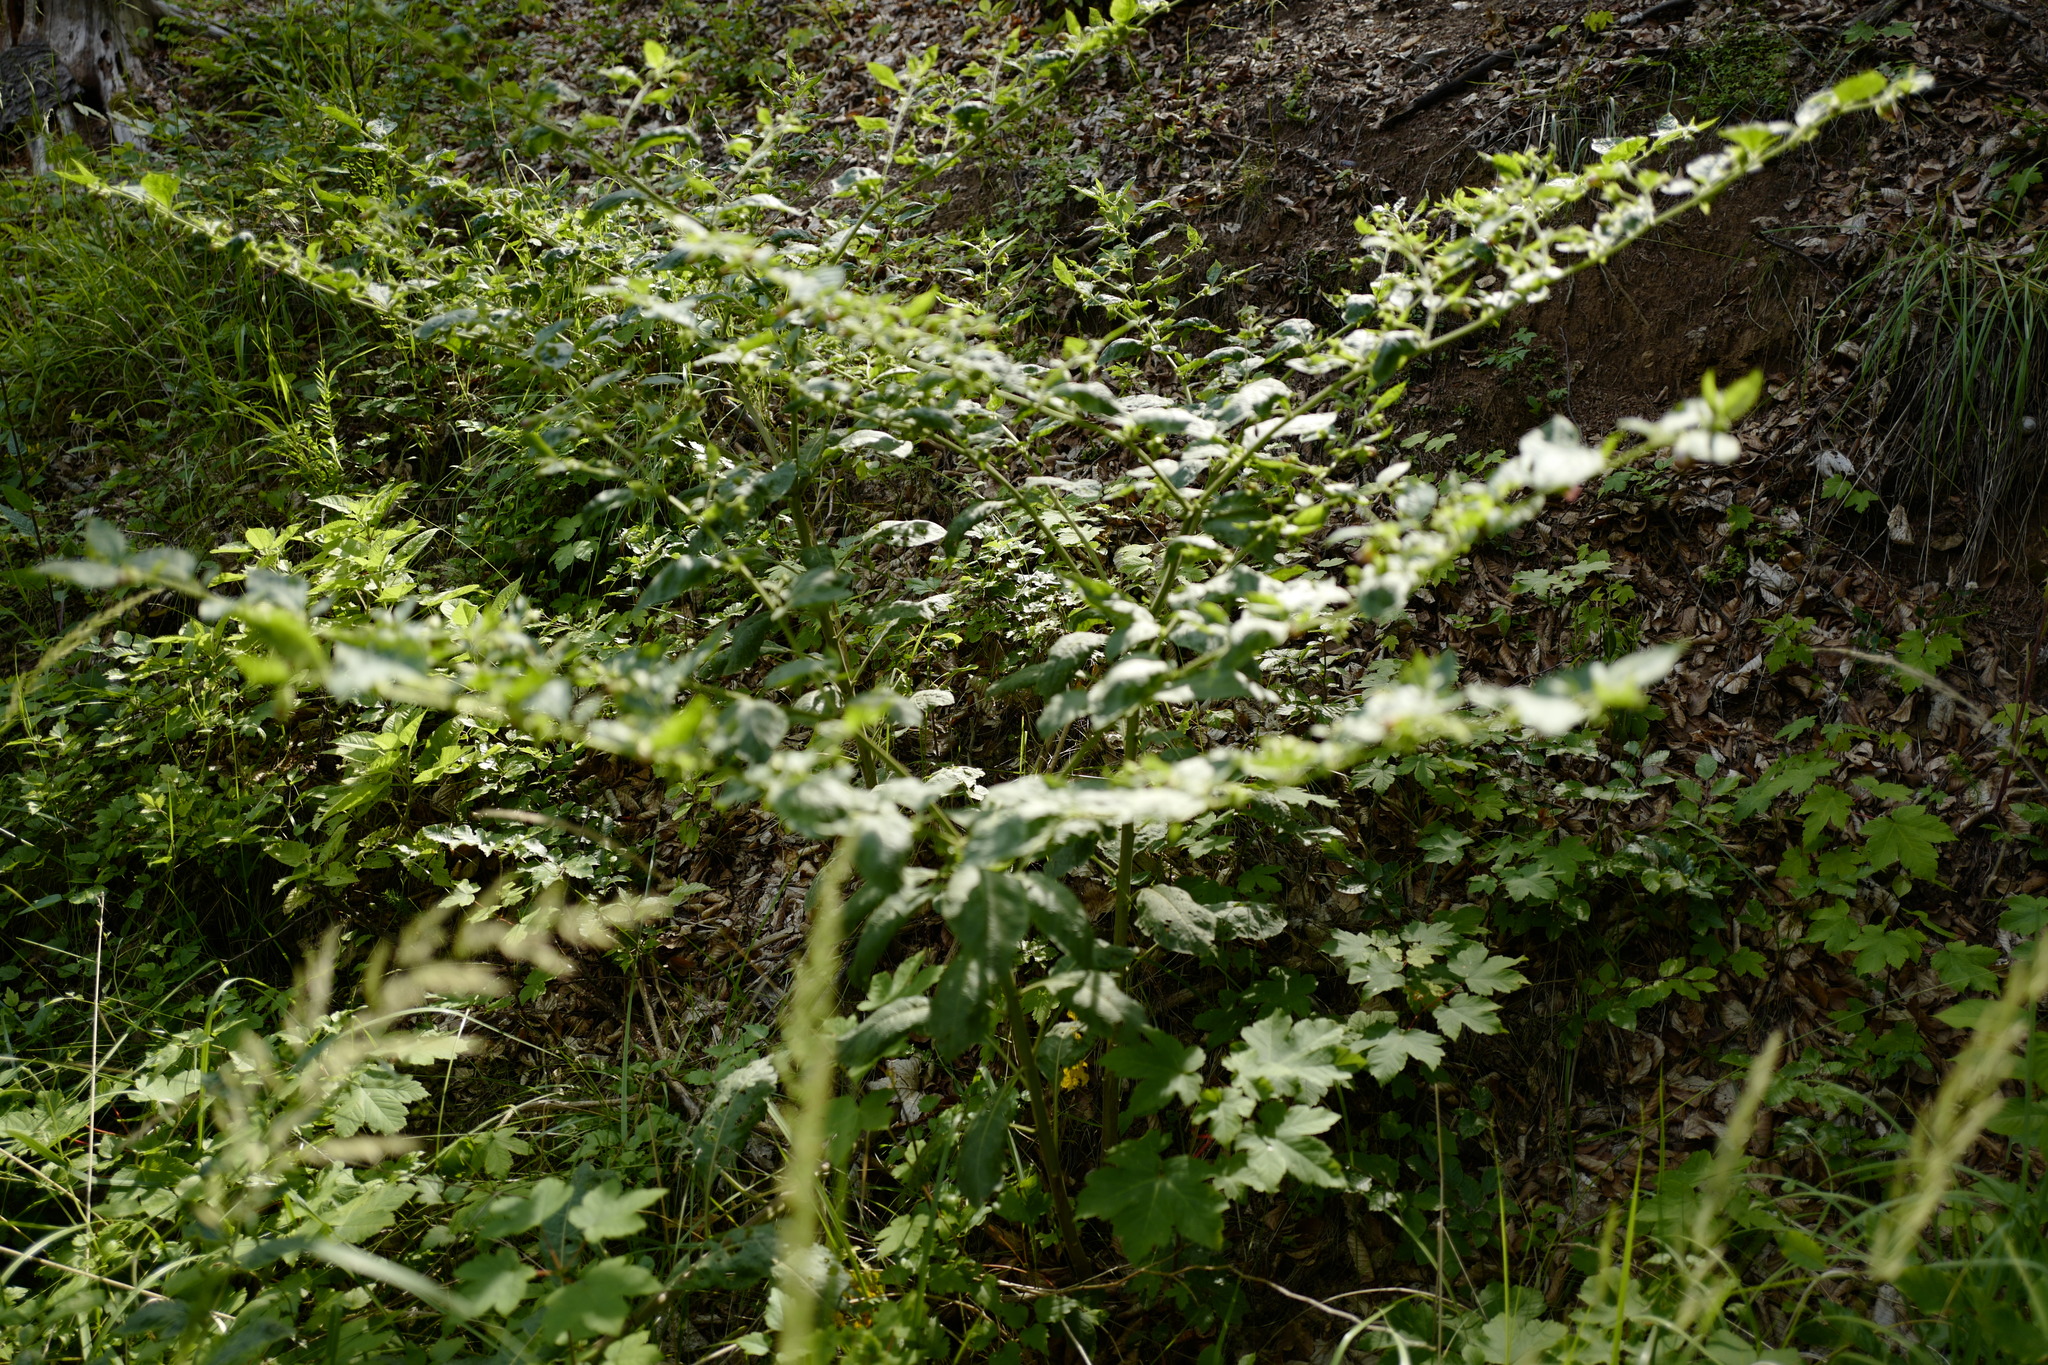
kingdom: Plantae
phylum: Tracheophyta
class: Magnoliopsida
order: Solanales
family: Solanaceae
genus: Atropa
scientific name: Atropa belladonna
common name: Deadly nightshade
